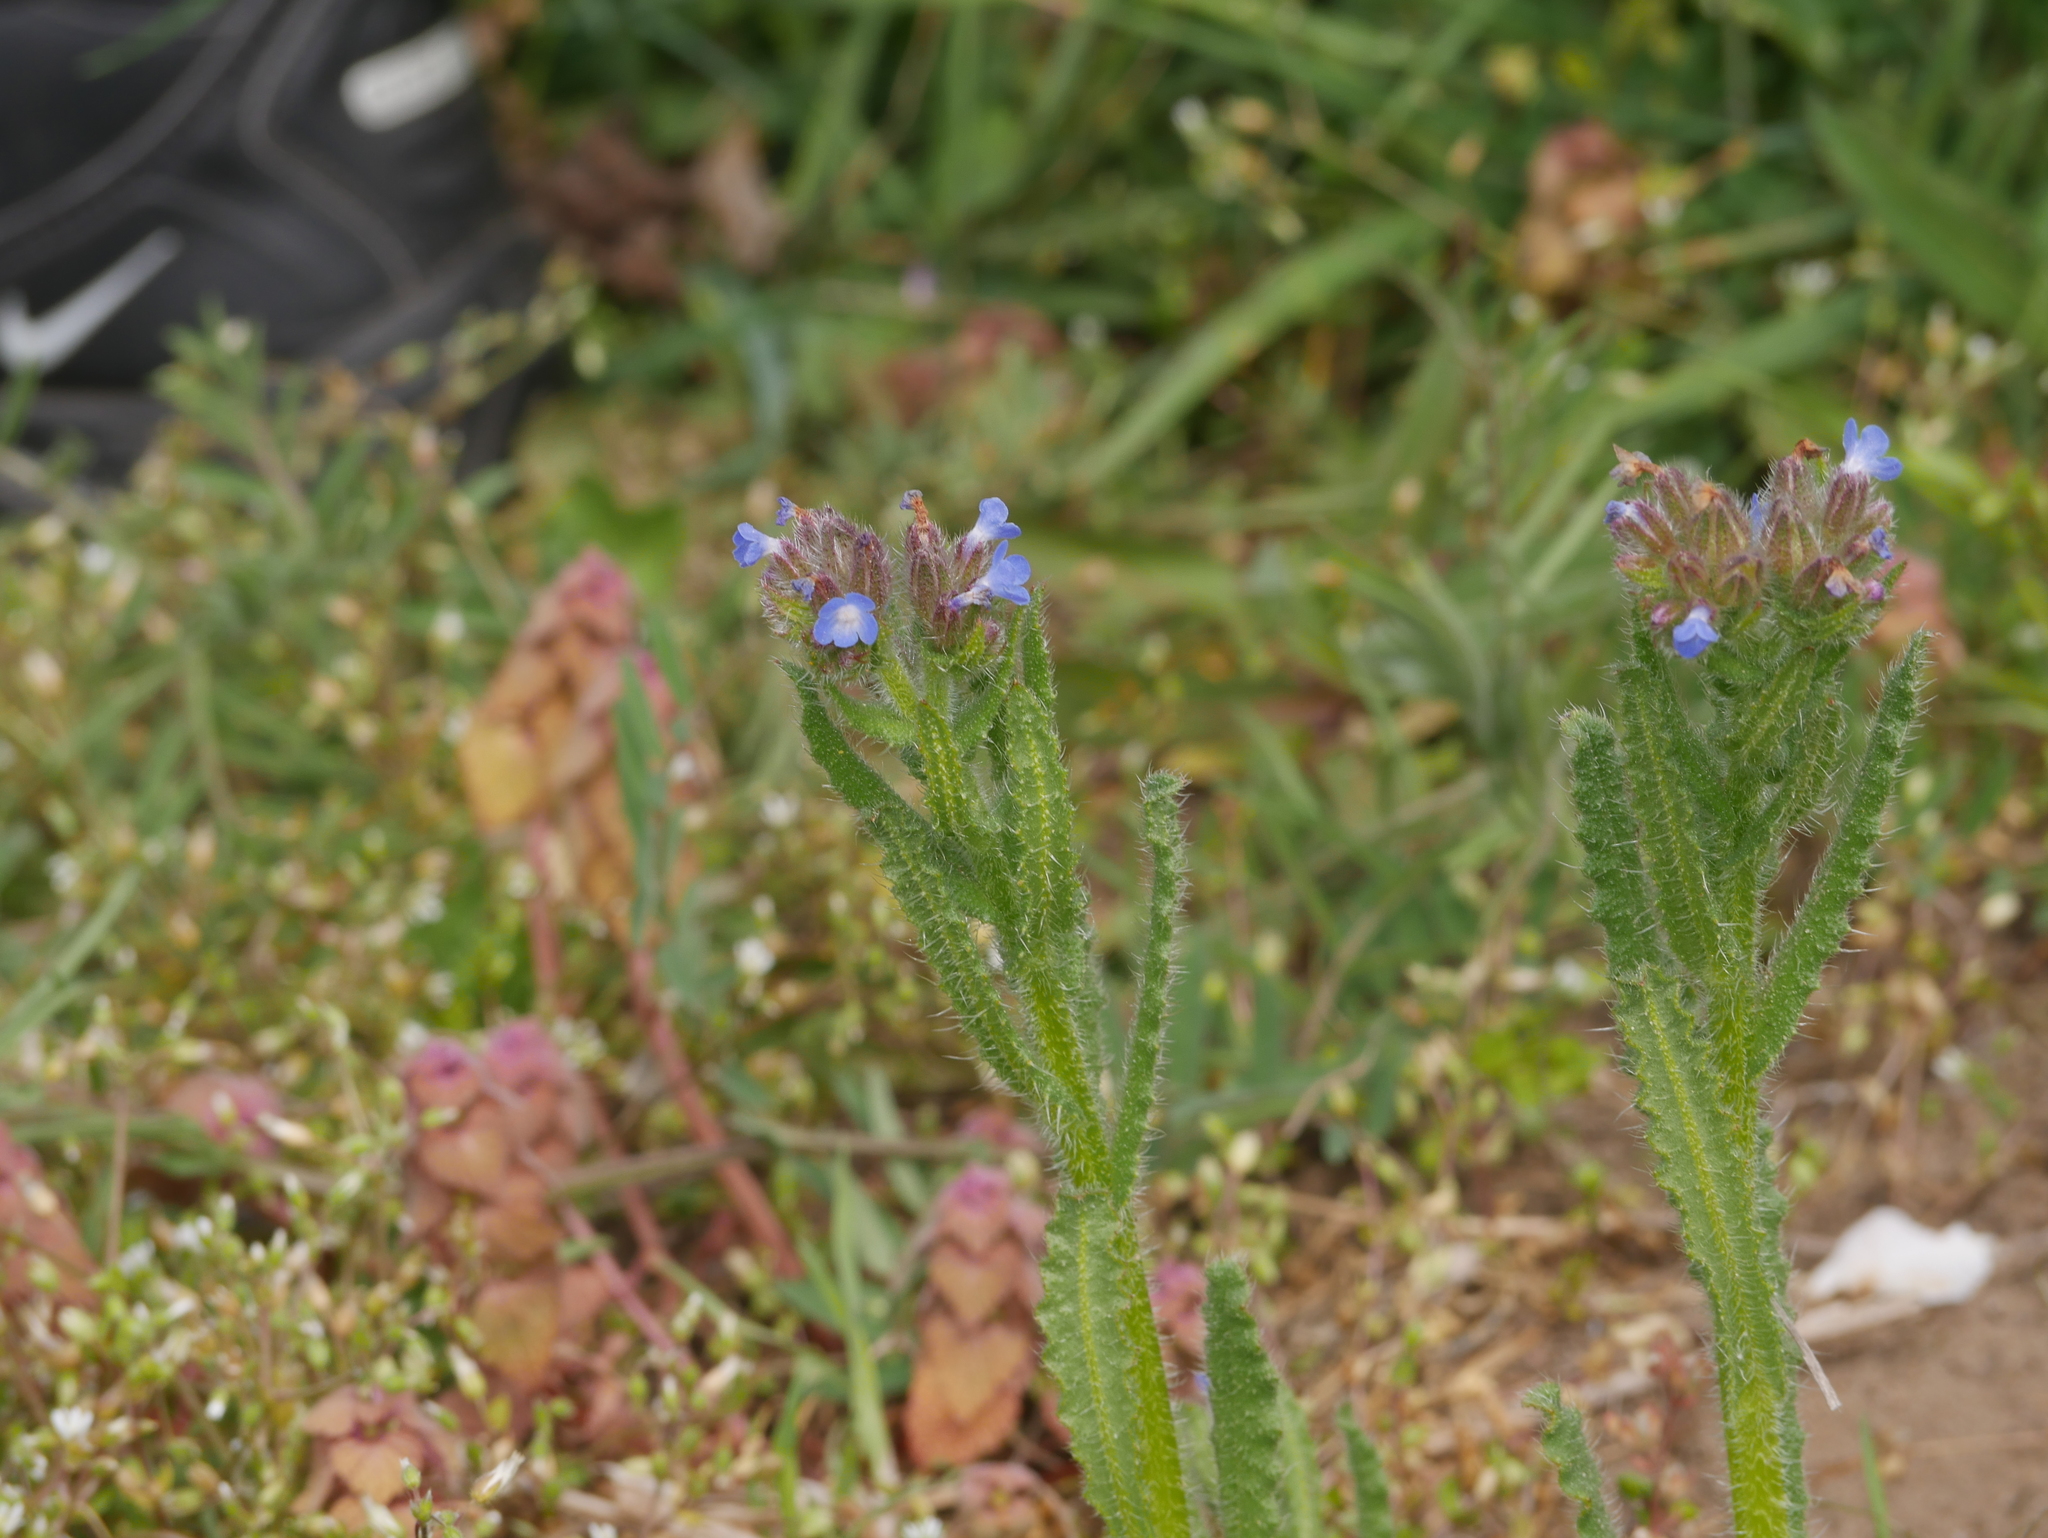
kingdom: Plantae
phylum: Tracheophyta
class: Magnoliopsida
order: Boraginales
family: Boraginaceae
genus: Lycopsis
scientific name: Lycopsis arvensis
